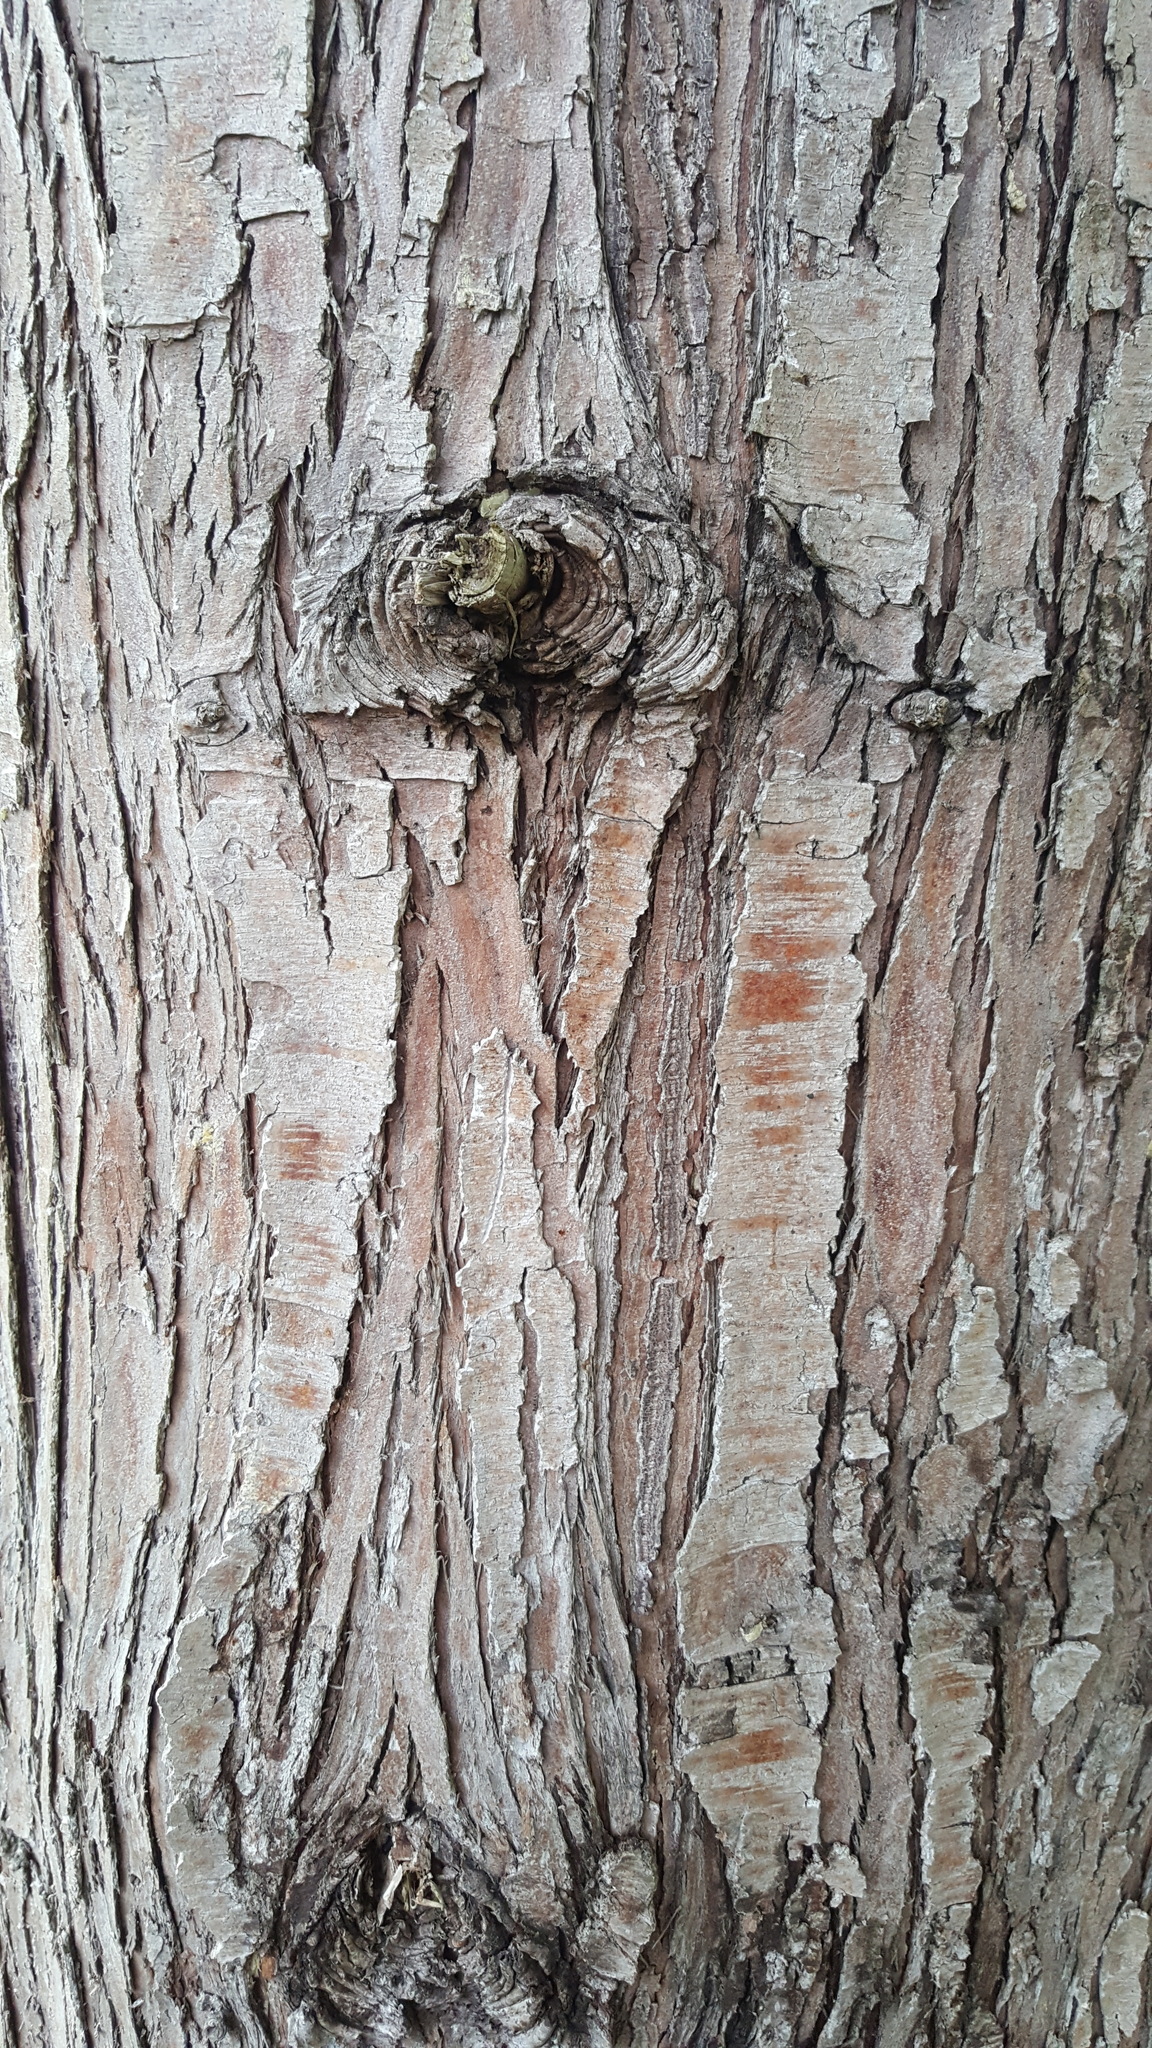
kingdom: Plantae
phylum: Tracheophyta
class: Pinopsida
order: Pinales
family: Cupressaceae
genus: Thuja
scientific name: Thuja plicata
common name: Western red-cedar
